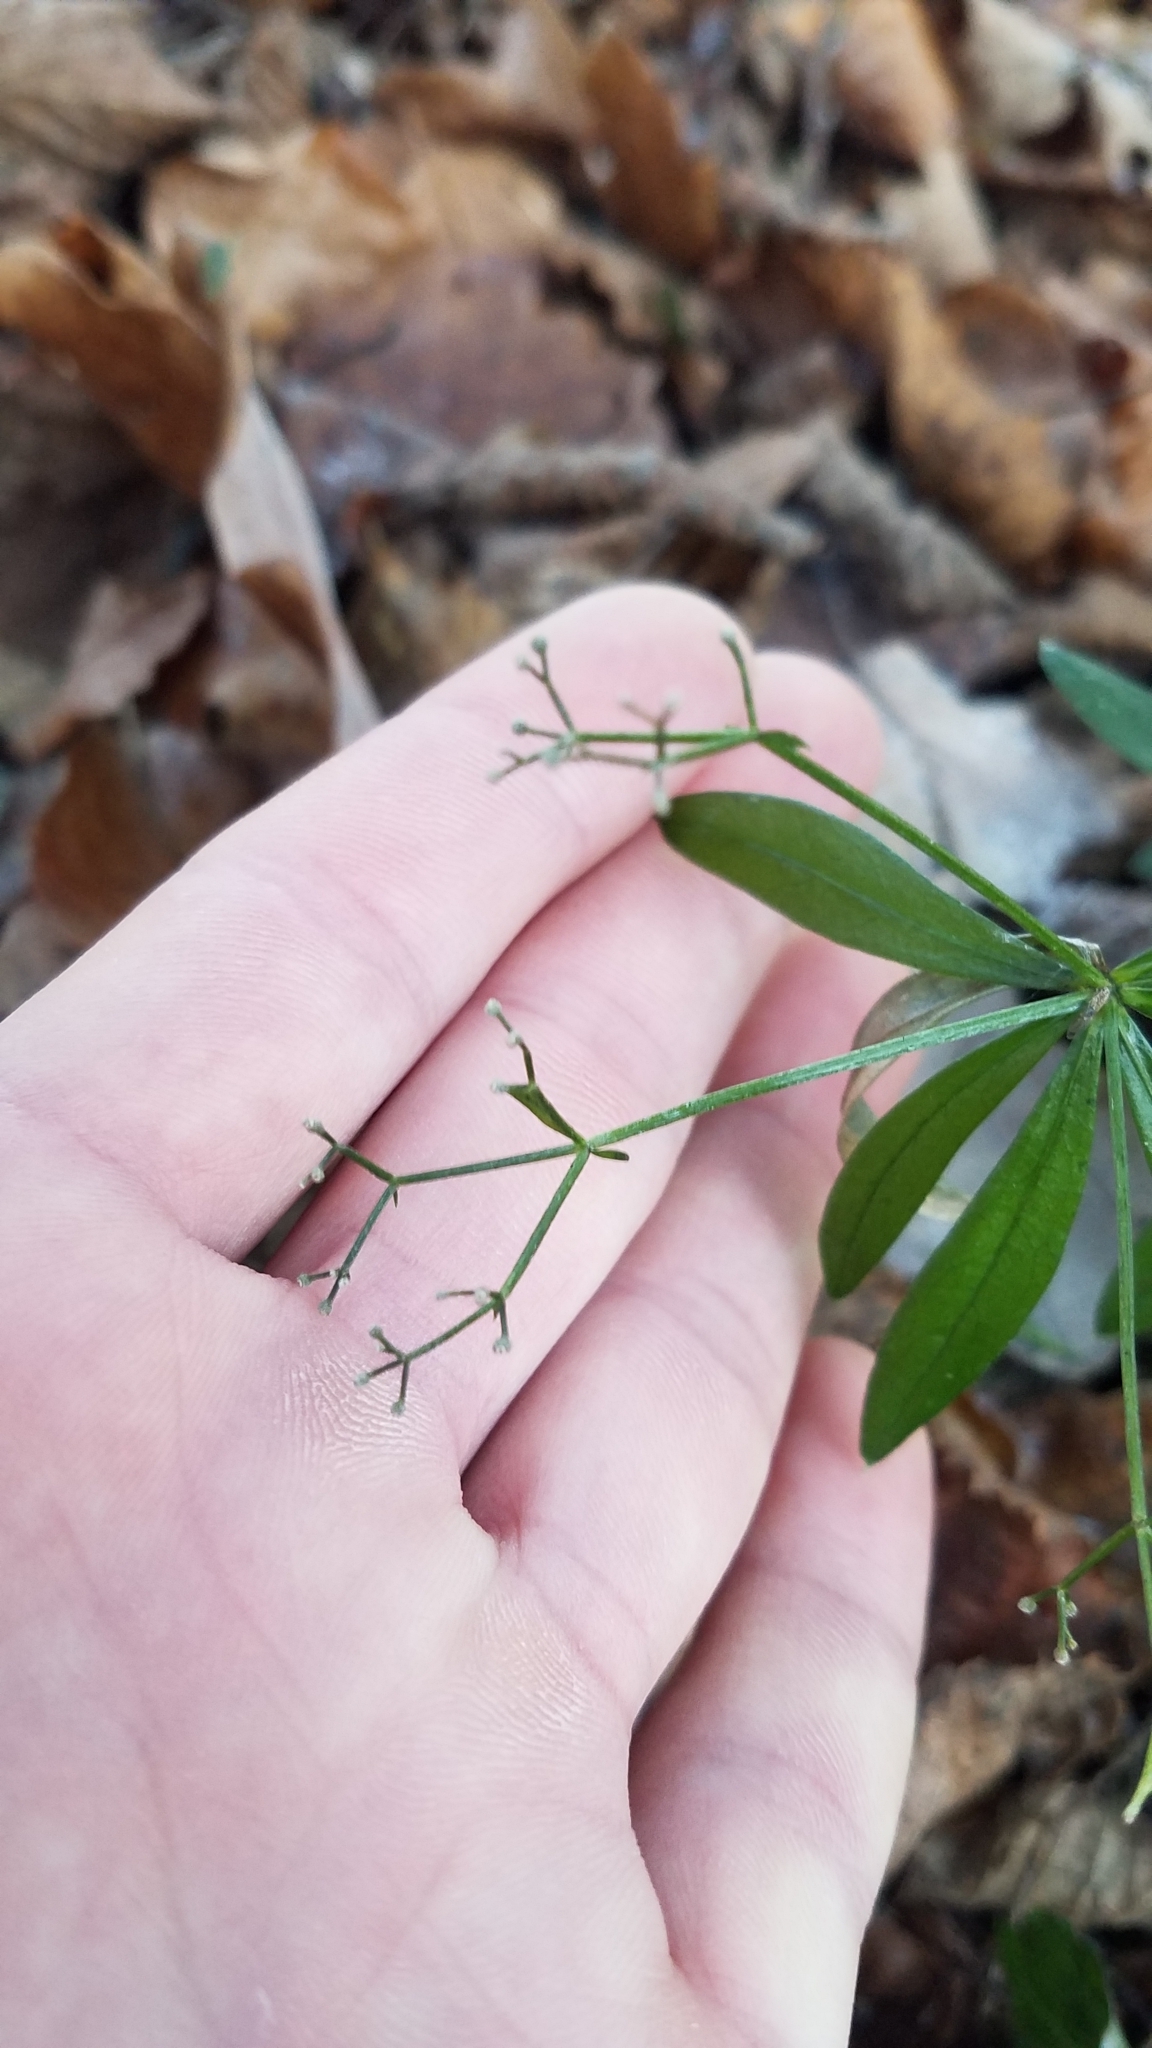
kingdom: Plantae
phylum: Tracheophyta
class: Magnoliopsida
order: Gentianales
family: Rubiaceae
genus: Galium
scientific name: Galium odoratum
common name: Sweet woodruff
